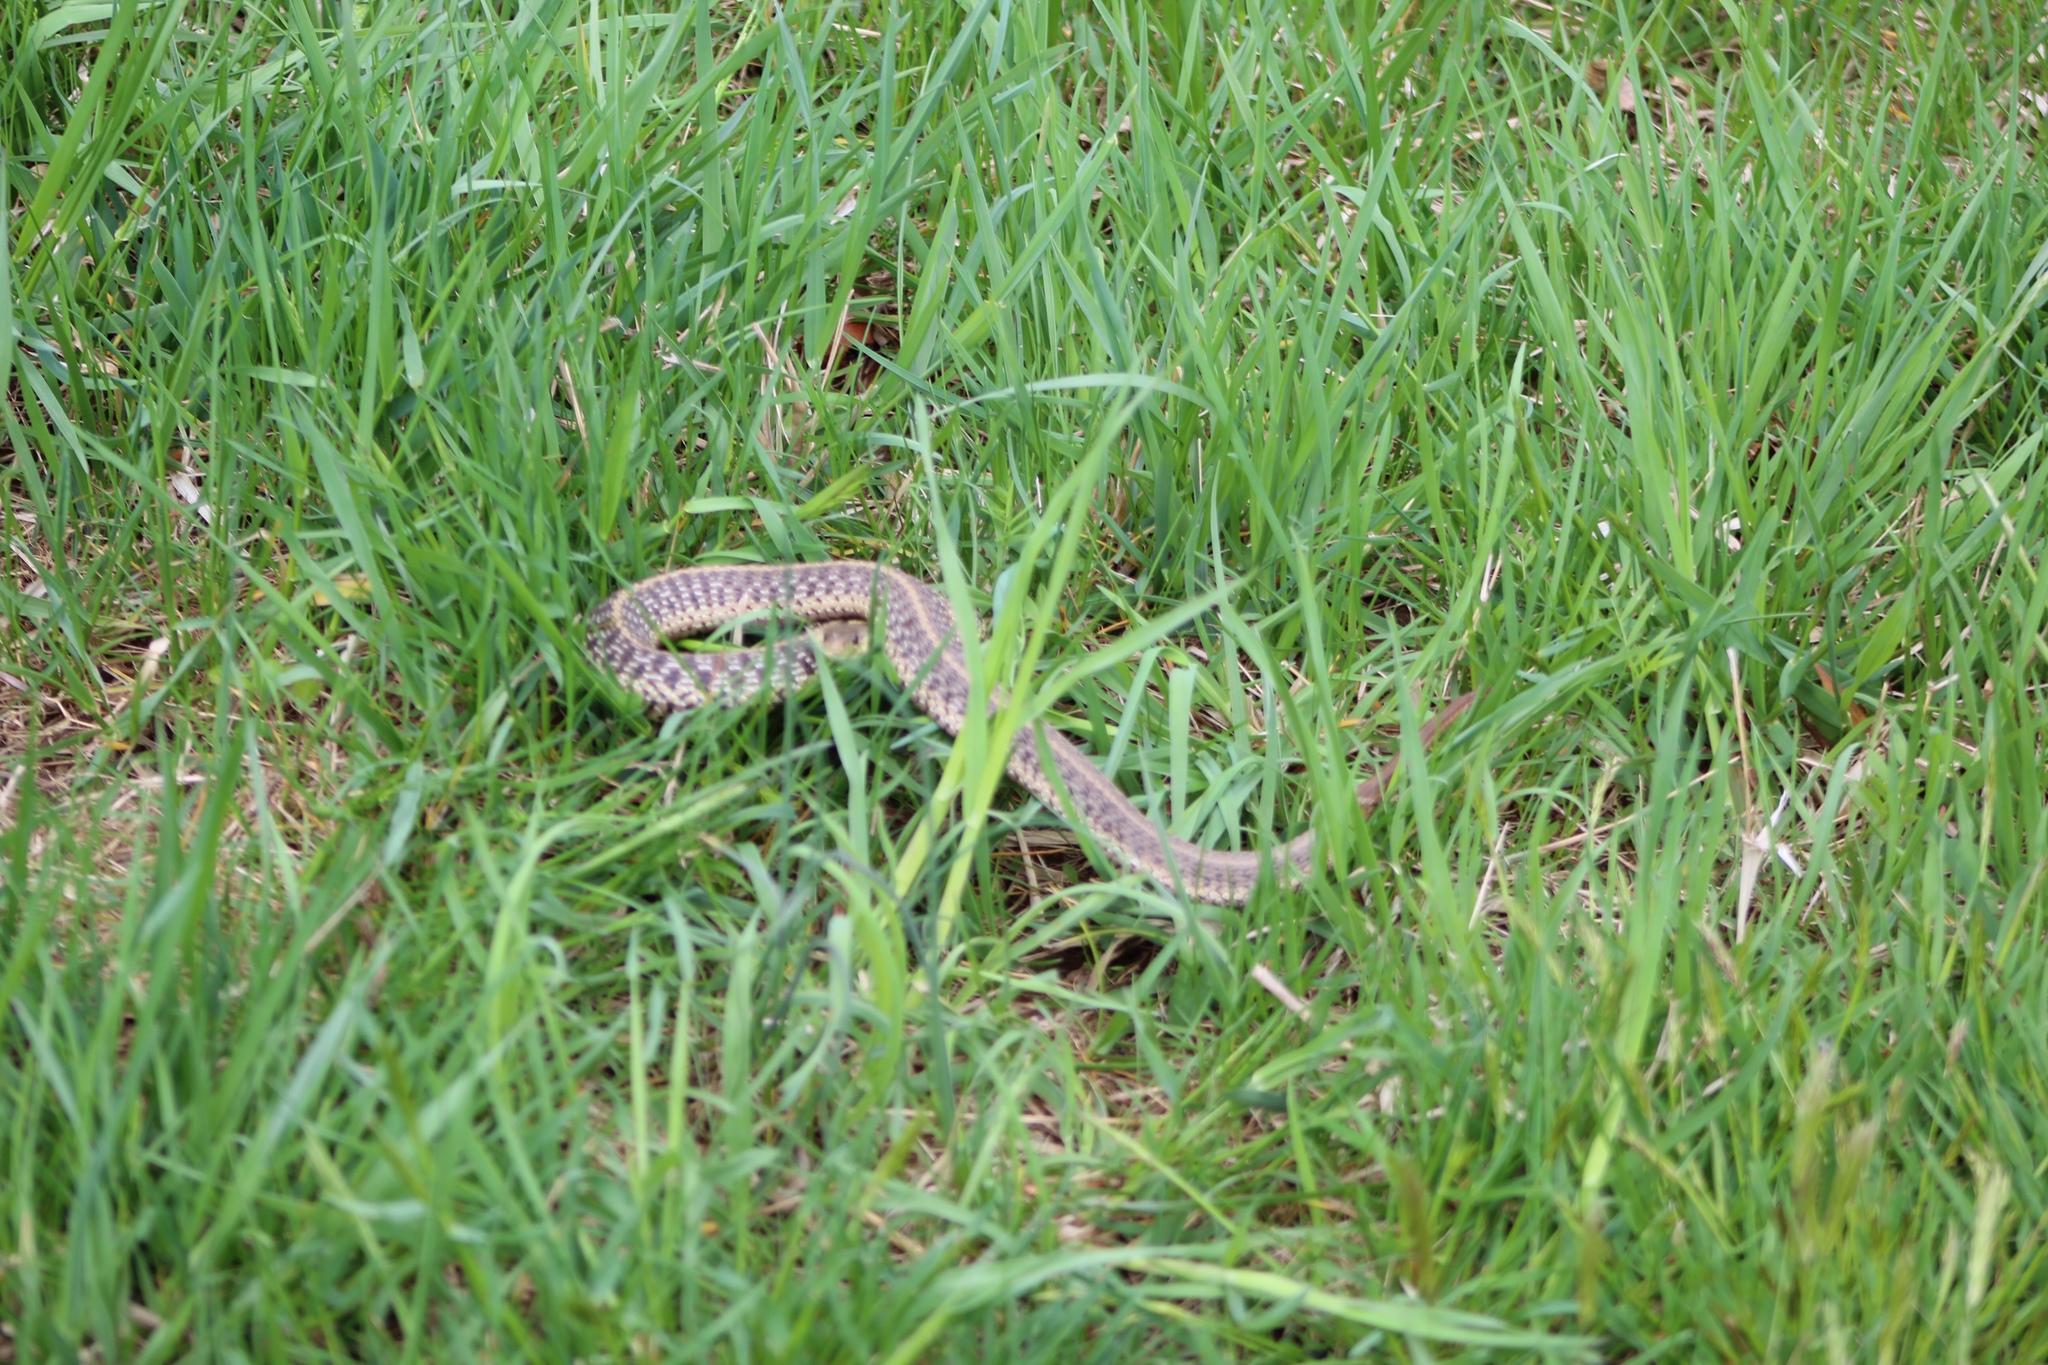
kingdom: Animalia
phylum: Chordata
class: Squamata
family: Colubridae
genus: Thamnophis
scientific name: Thamnophis sirtalis
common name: Common garter snake
